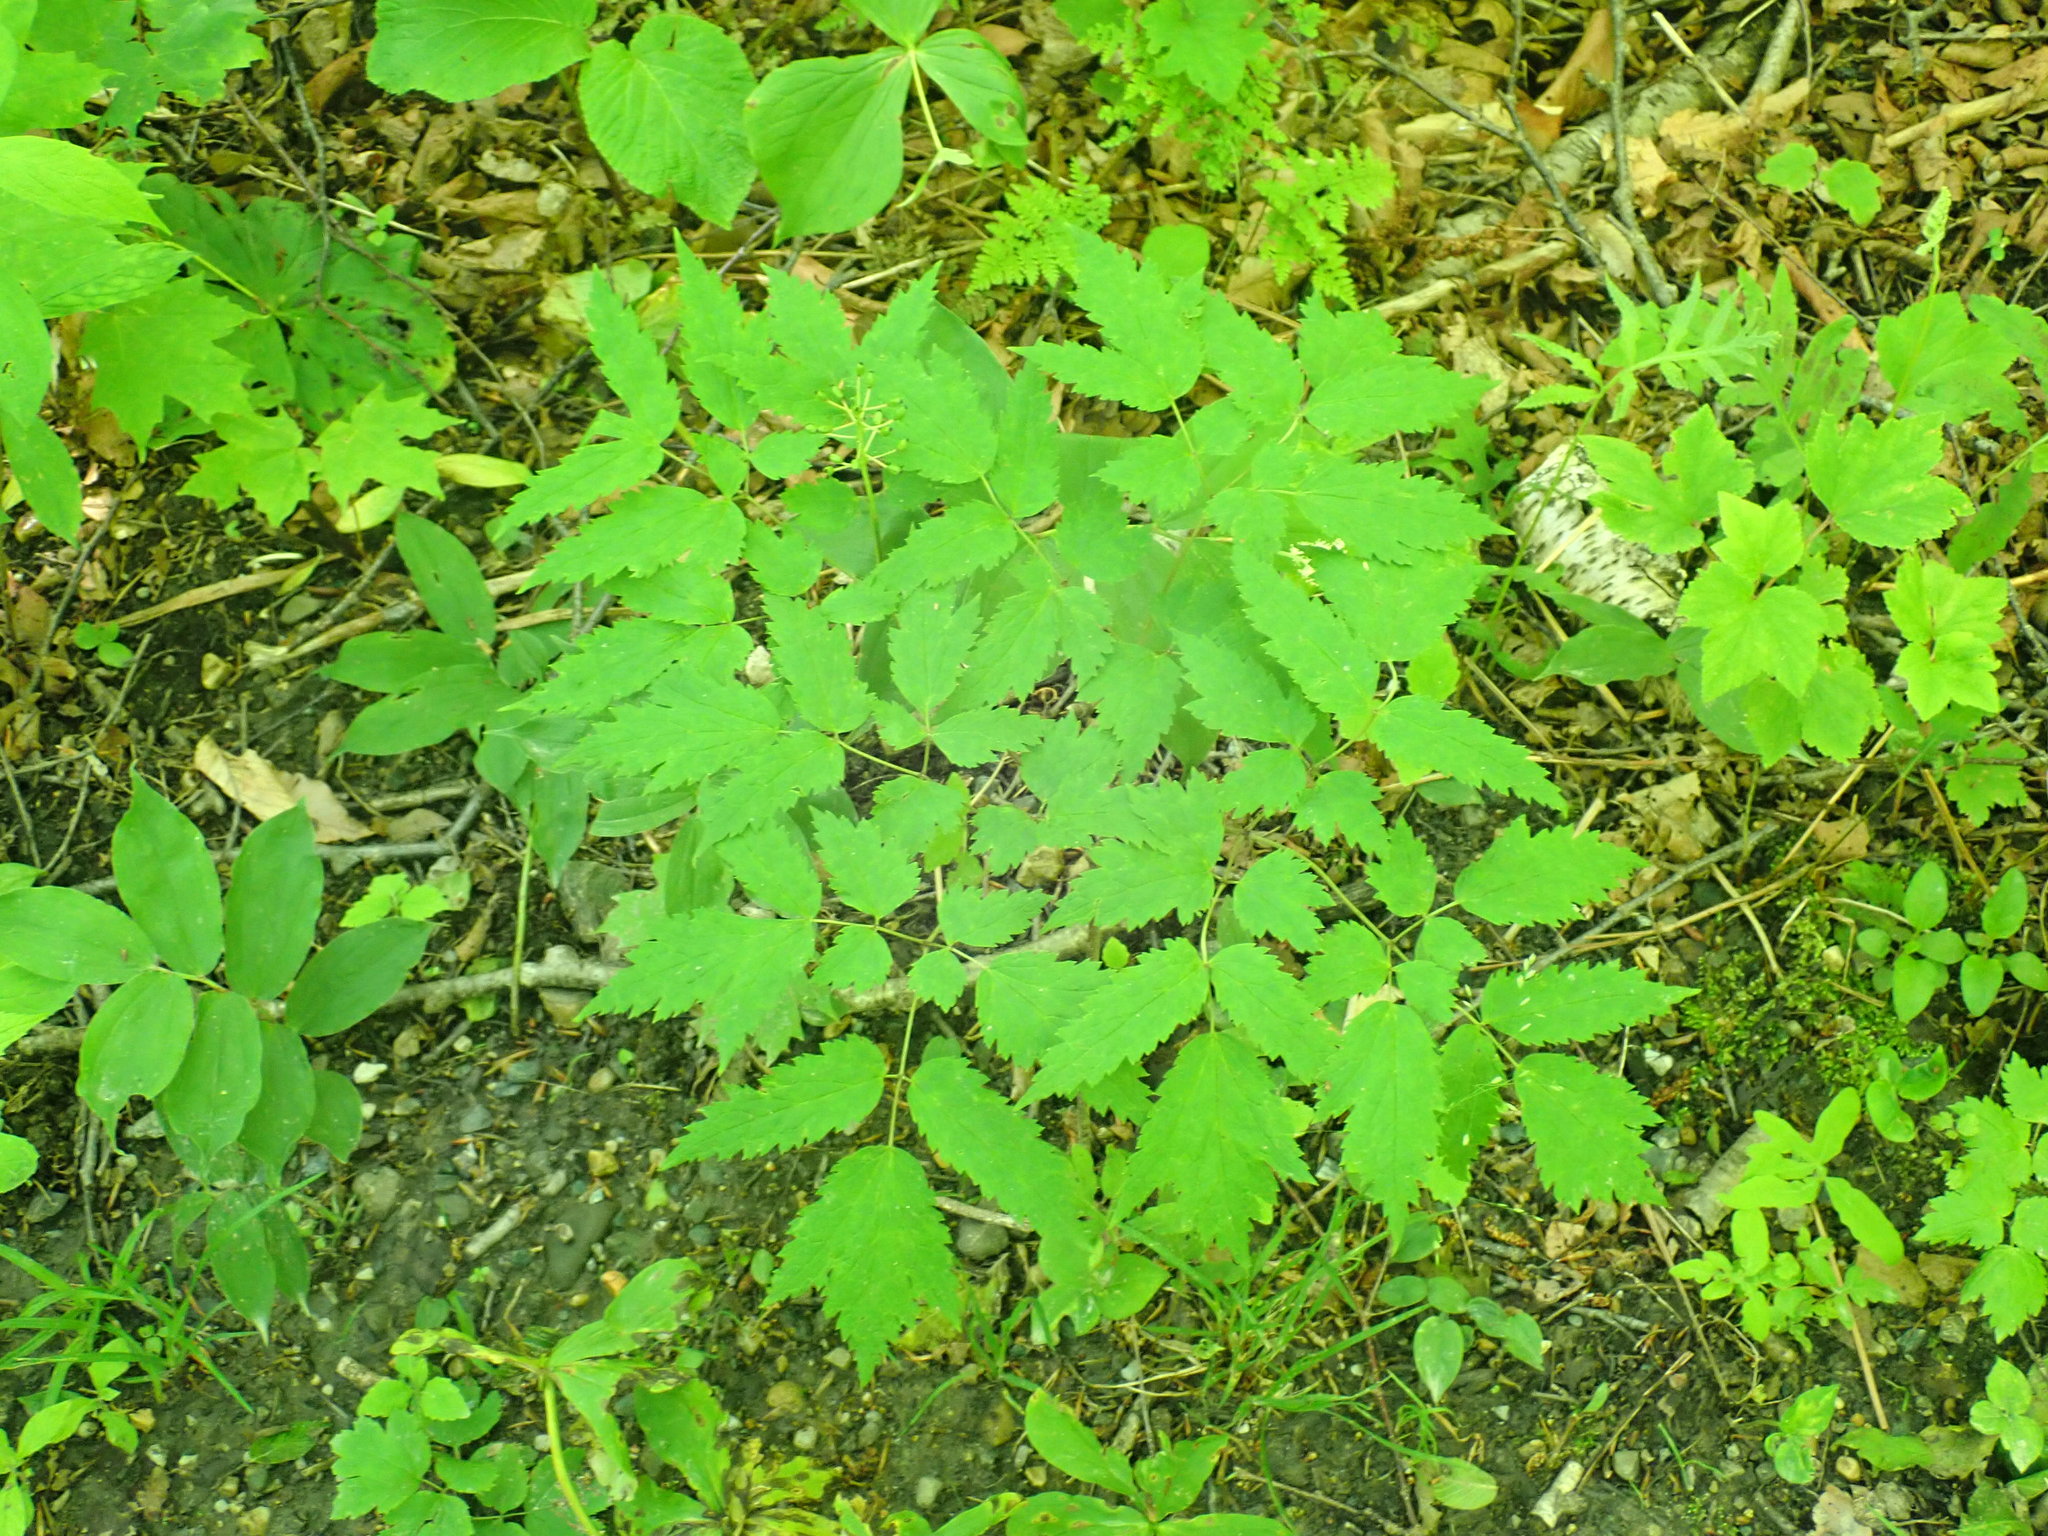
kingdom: Plantae
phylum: Tracheophyta
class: Magnoliopsida
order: Ranunculales
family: Ranunculaceae
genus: Actaea
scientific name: Actaea rubra
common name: Red baneberry
